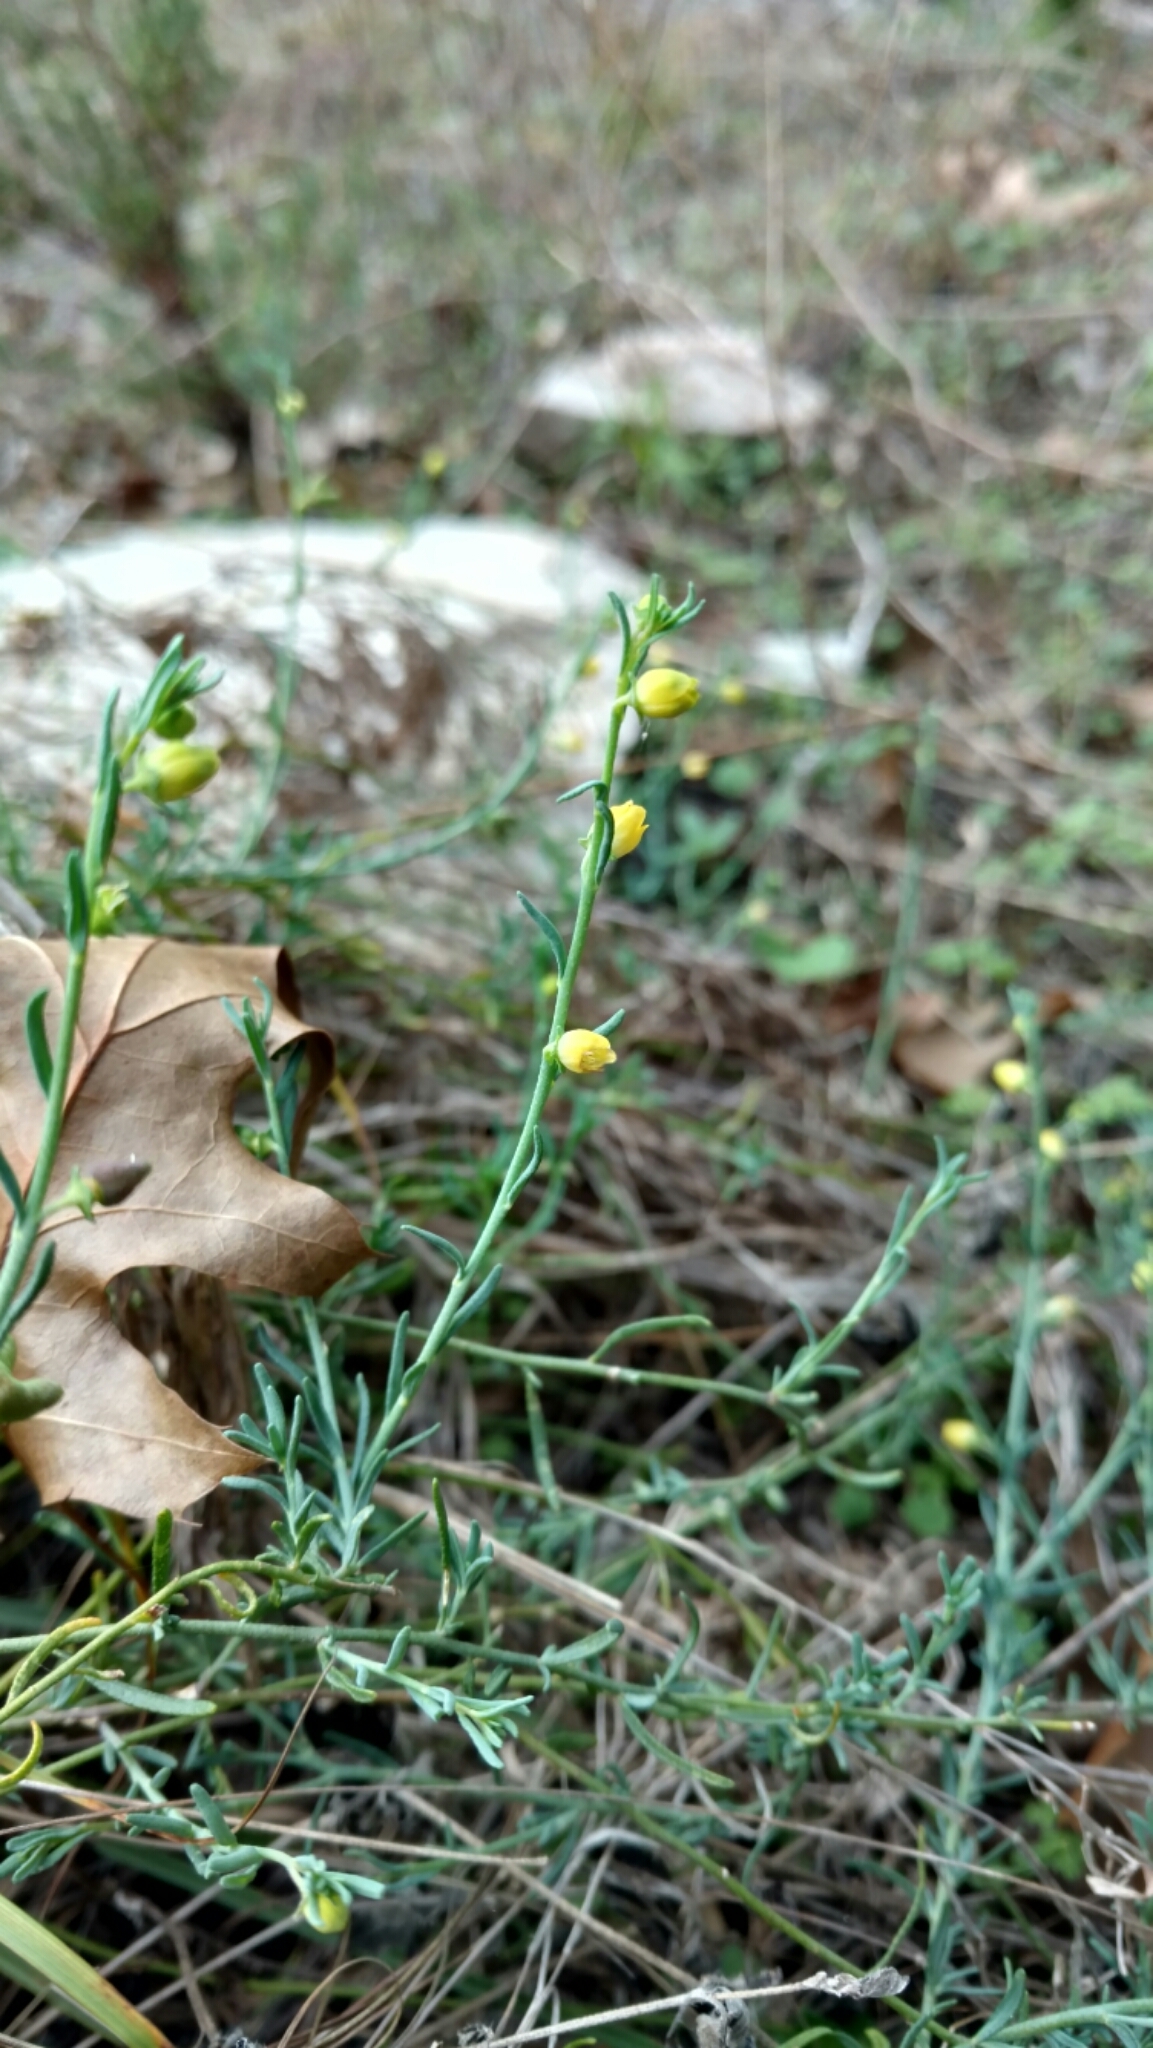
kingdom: Plantae
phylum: Tracheophyta
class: Magnoliopsida
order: Sapindales
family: Rutaceae
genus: Thamnosma
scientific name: Thamnosma texana
